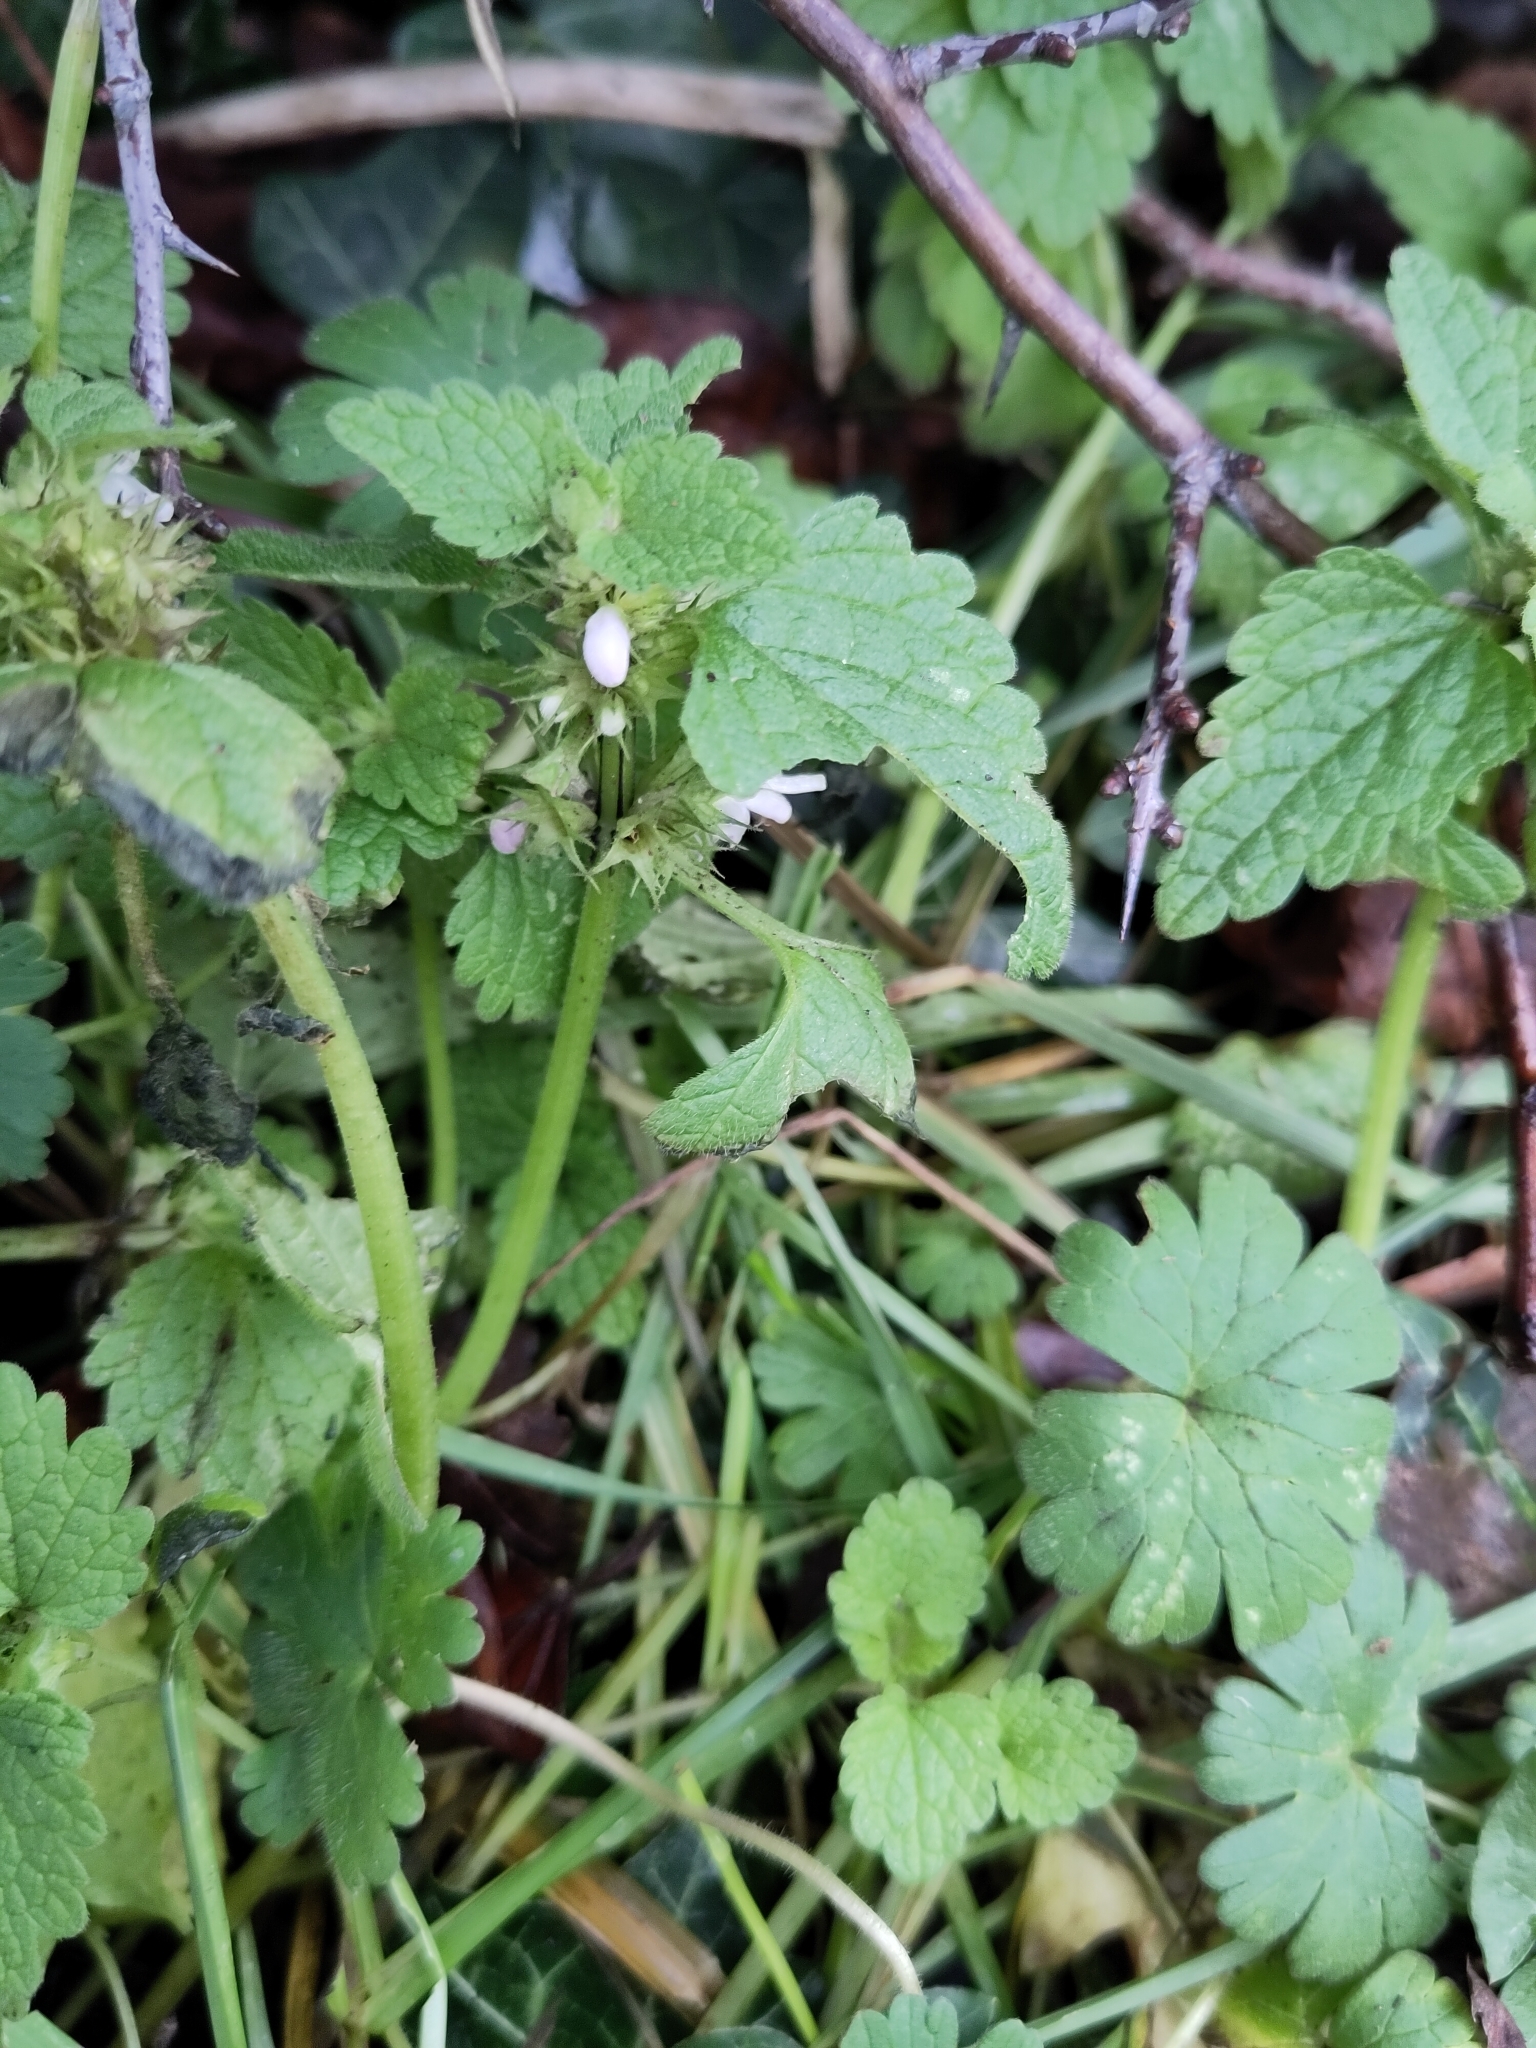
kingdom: Plantae
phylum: Tracheophyta
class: Magnoliopsida
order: Lamiales
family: Lamiaceae
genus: Lamium
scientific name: Lamium album
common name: White dead-nettle
